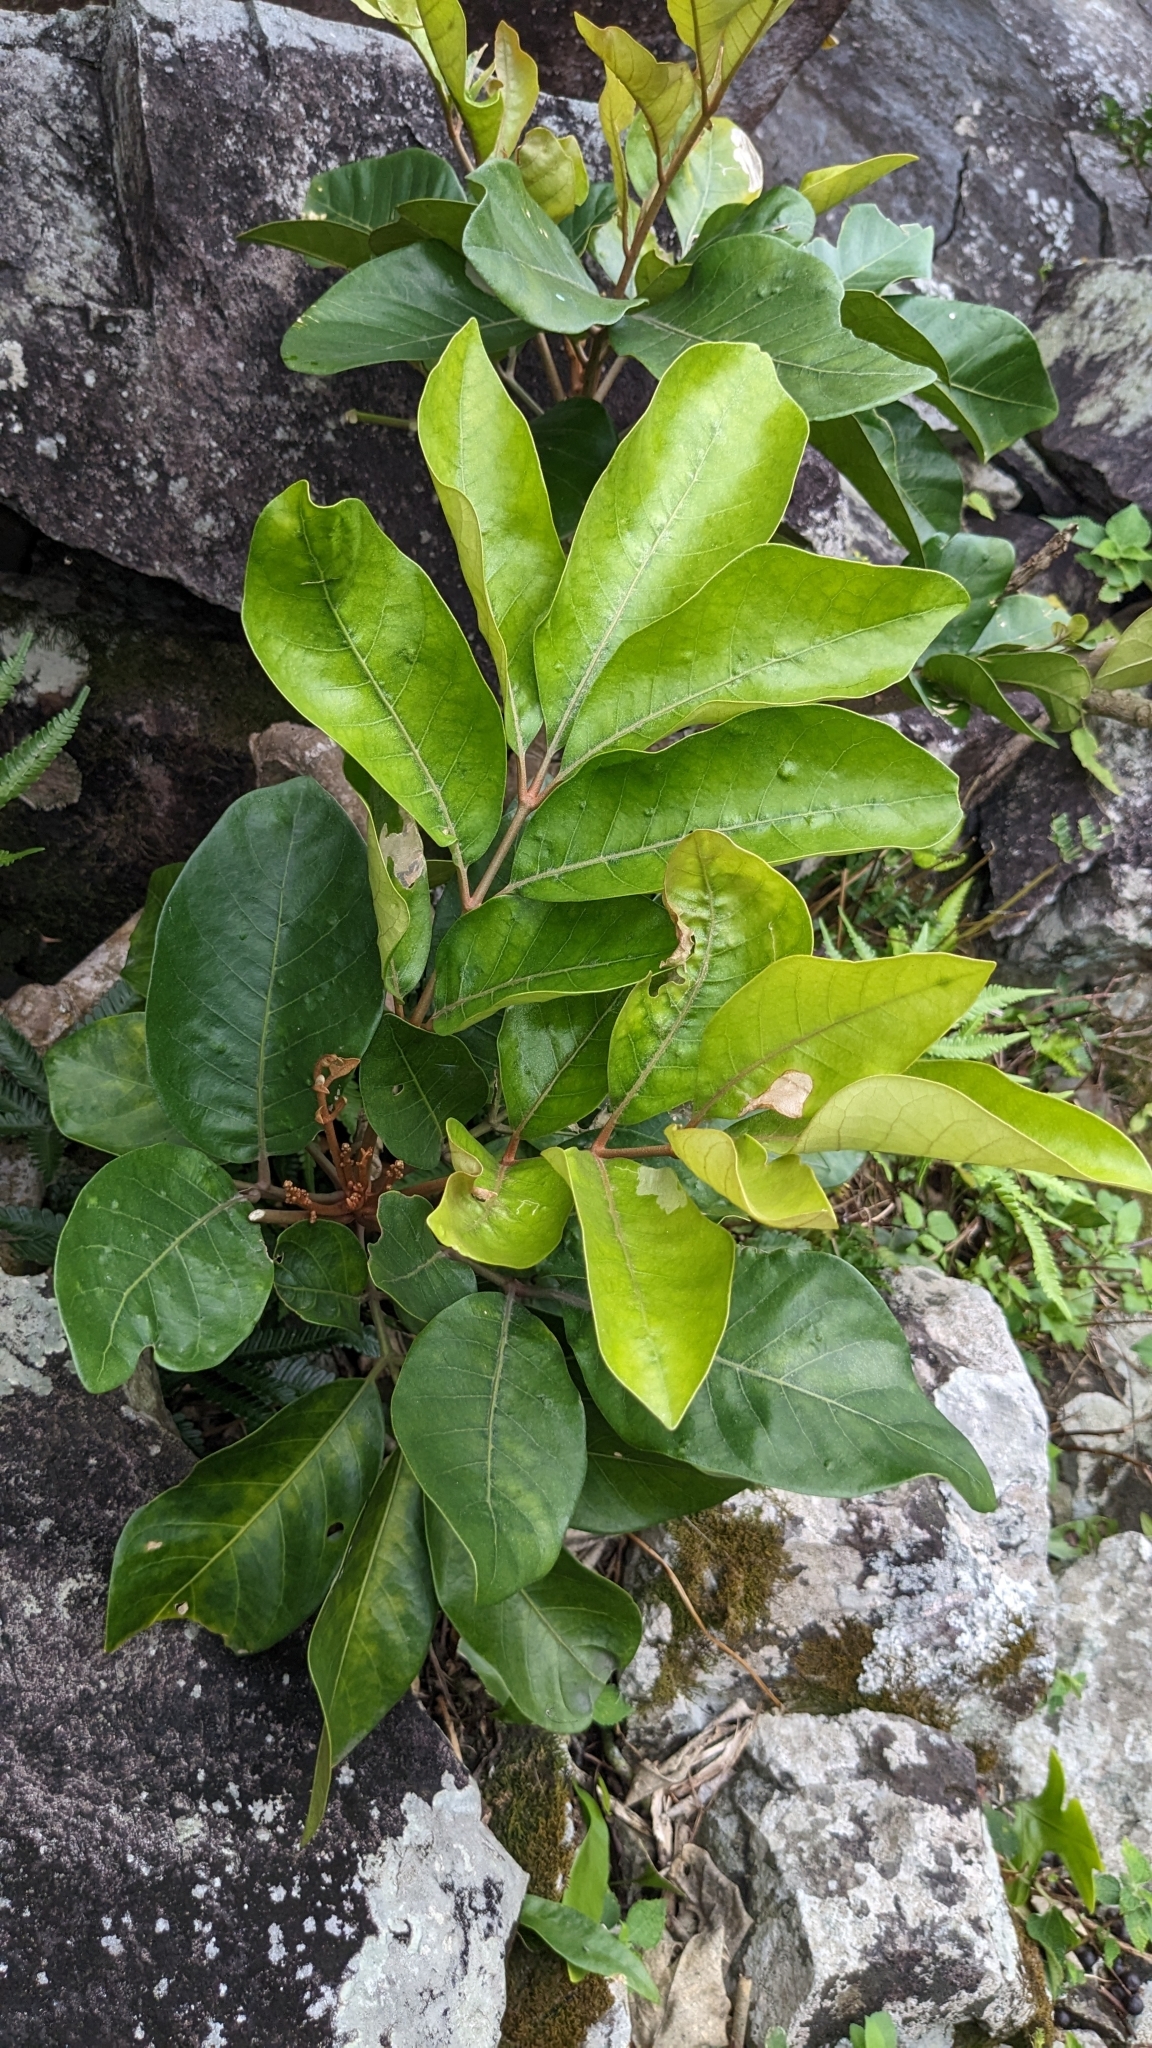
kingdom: Plantae
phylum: Tracheophyta
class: Magnoliopsida
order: Sapindales
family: Meliaceae
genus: Aglaia
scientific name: Aglaia rimosa
